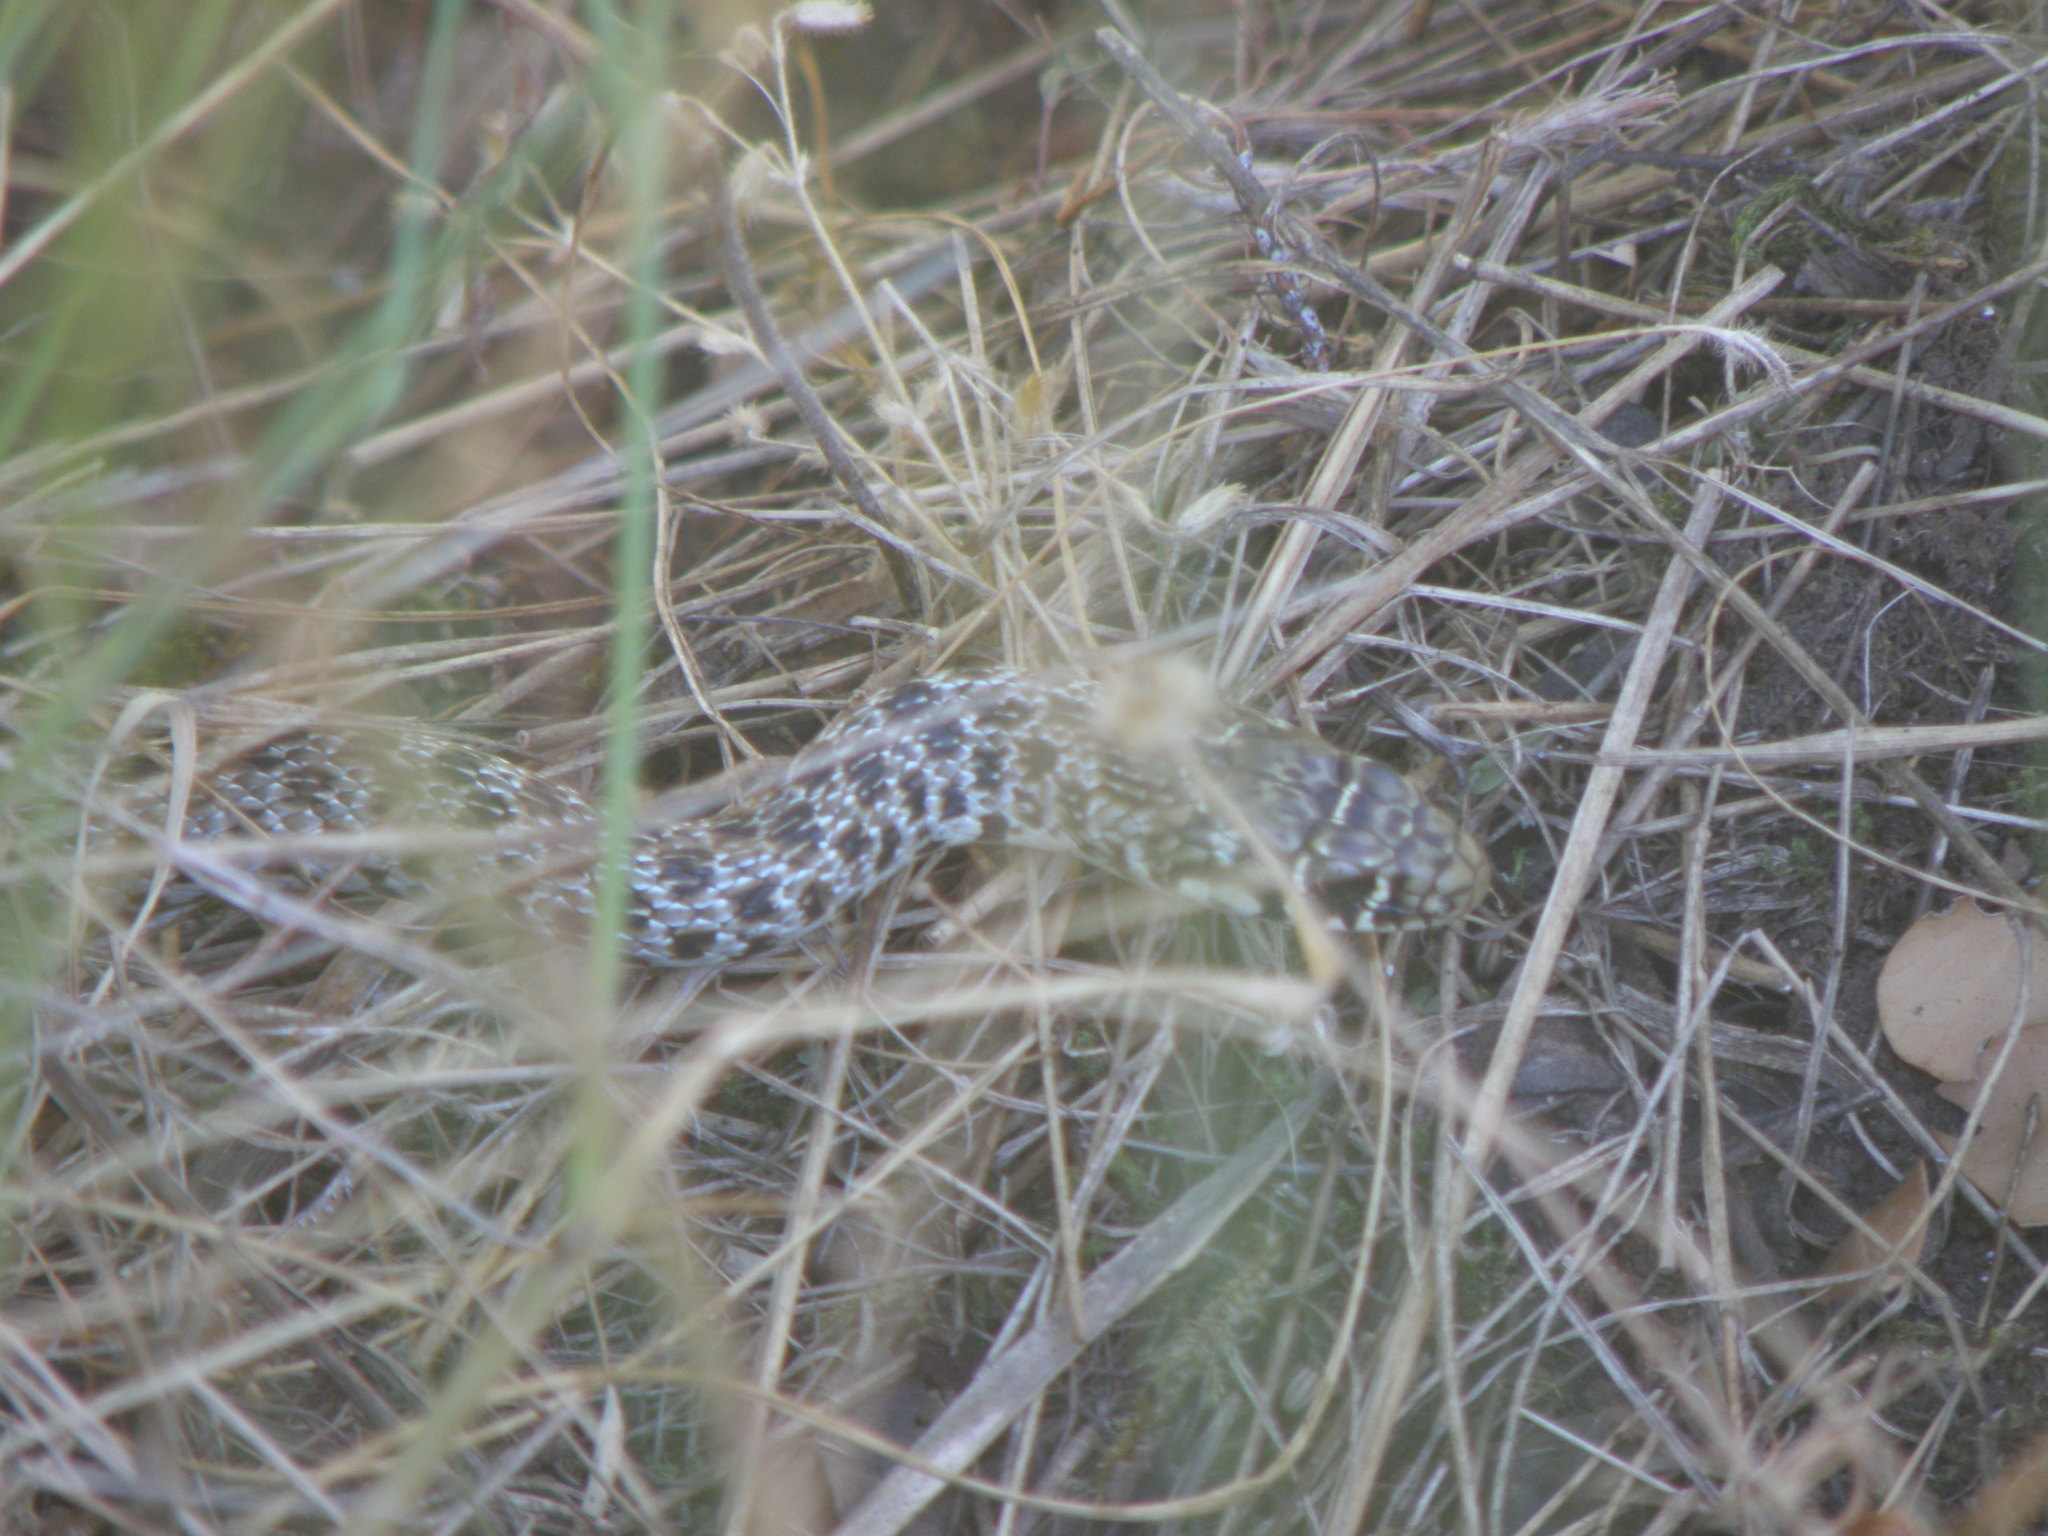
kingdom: Animalia
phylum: Chordata
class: Squamata
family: Colubridae
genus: Hierophis
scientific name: Hierophis gemonensis
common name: Balkan whip snake
